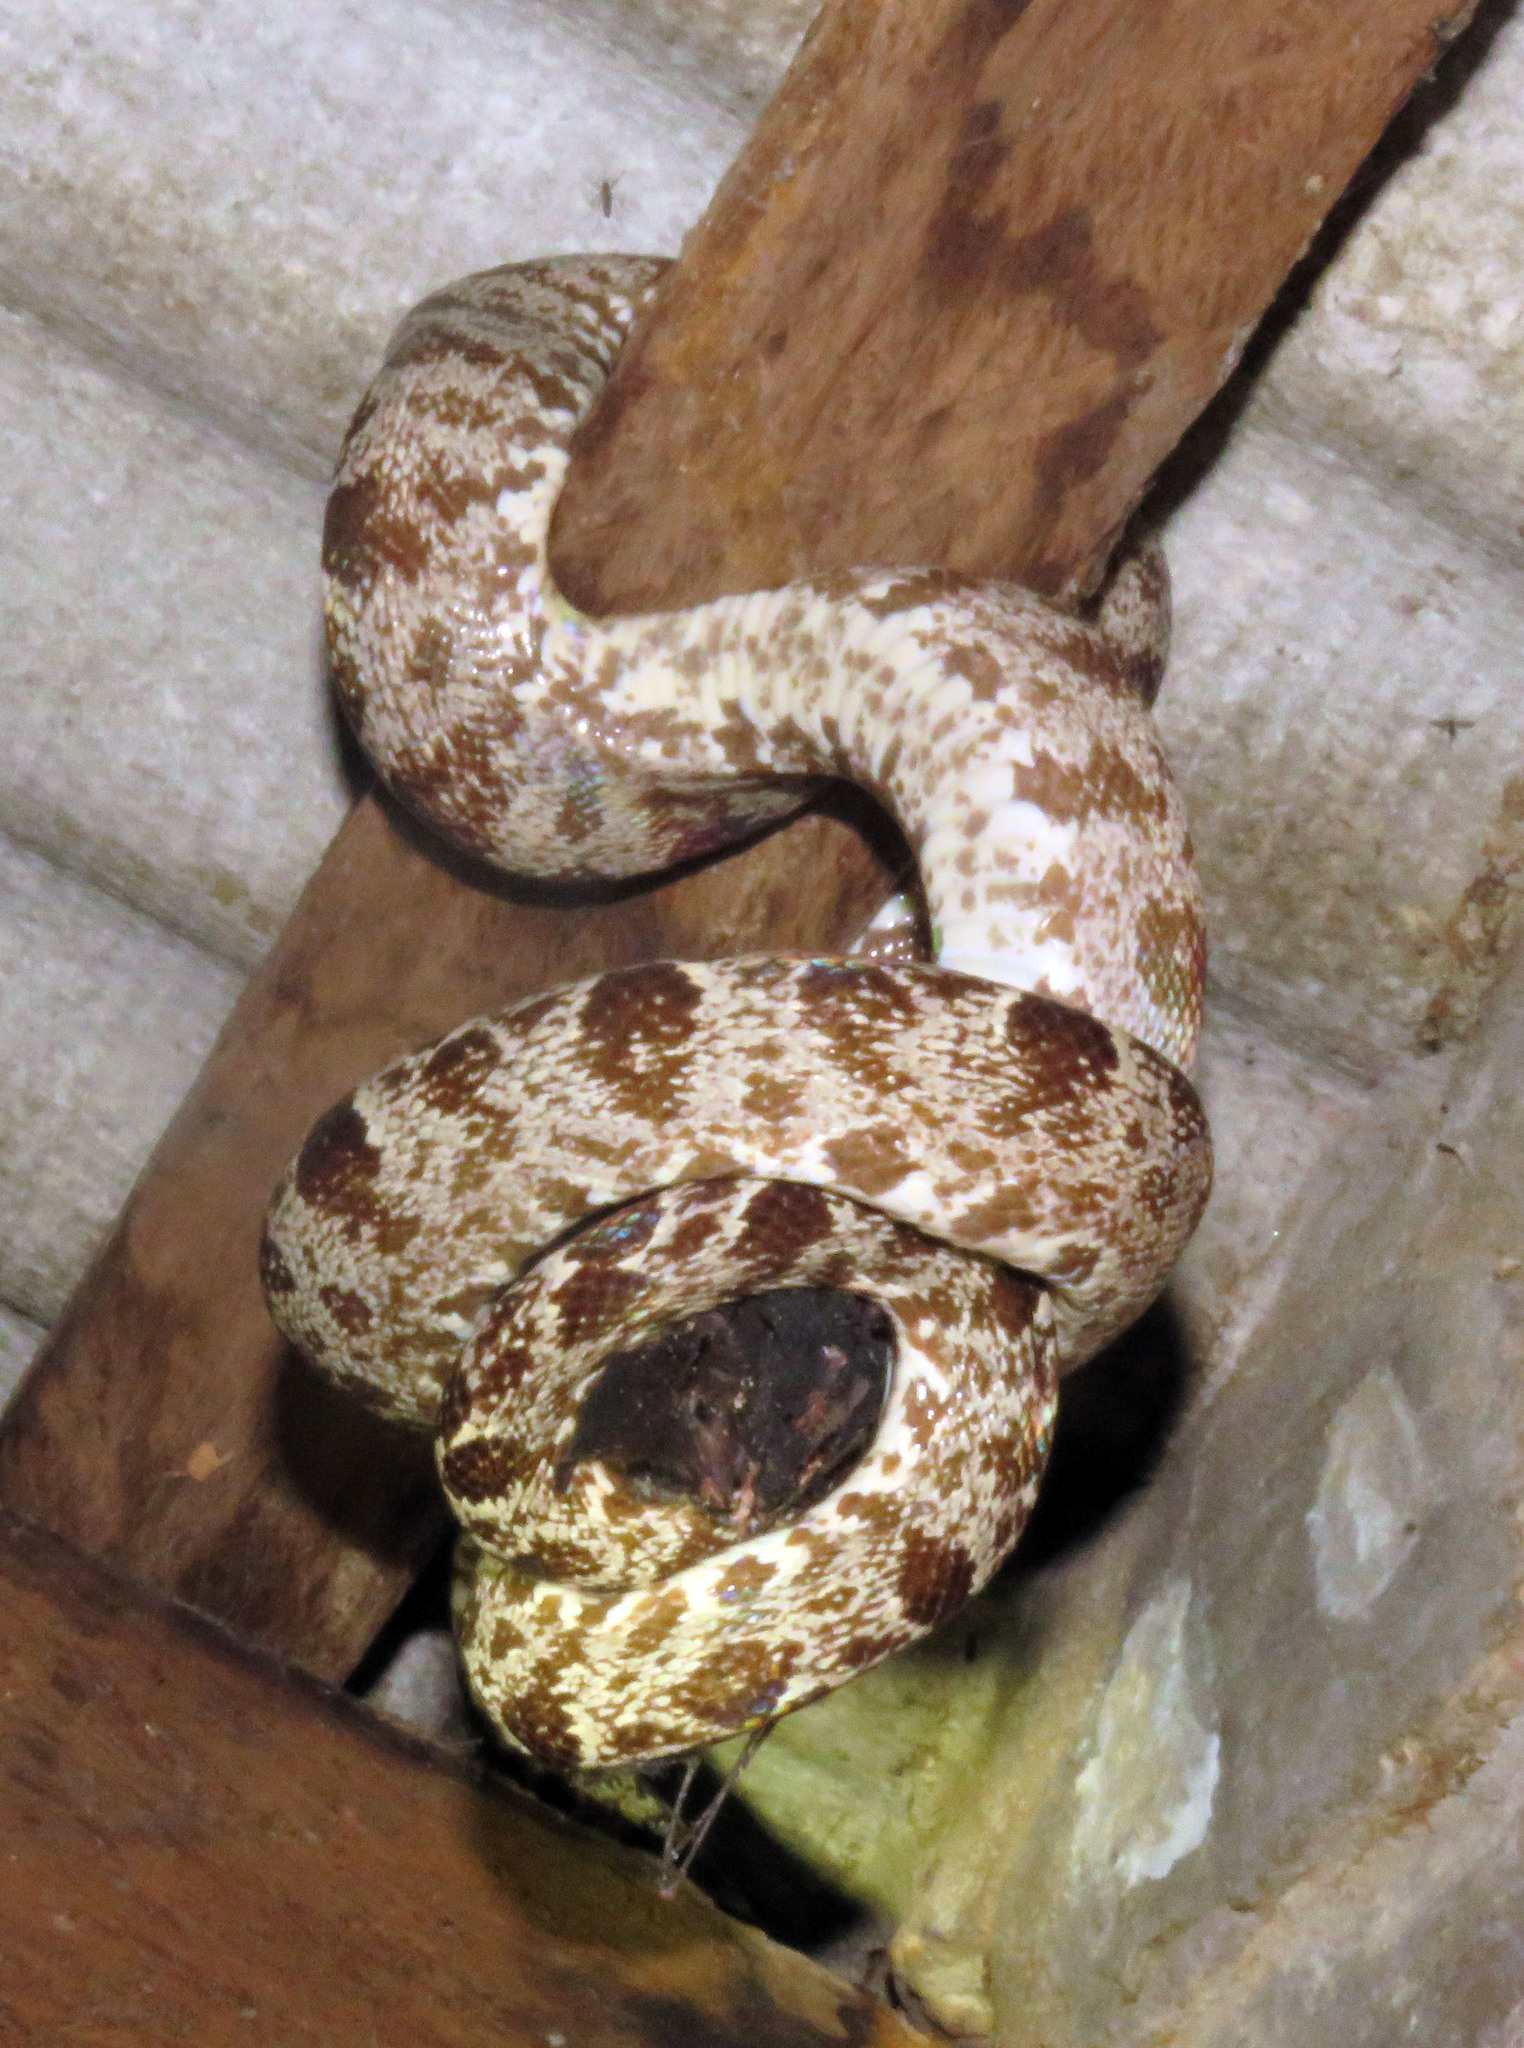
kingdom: Animalia
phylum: Chordata
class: Squamata
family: Boidae
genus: Corallus
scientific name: Corallus hortulana
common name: Garden tree boa
